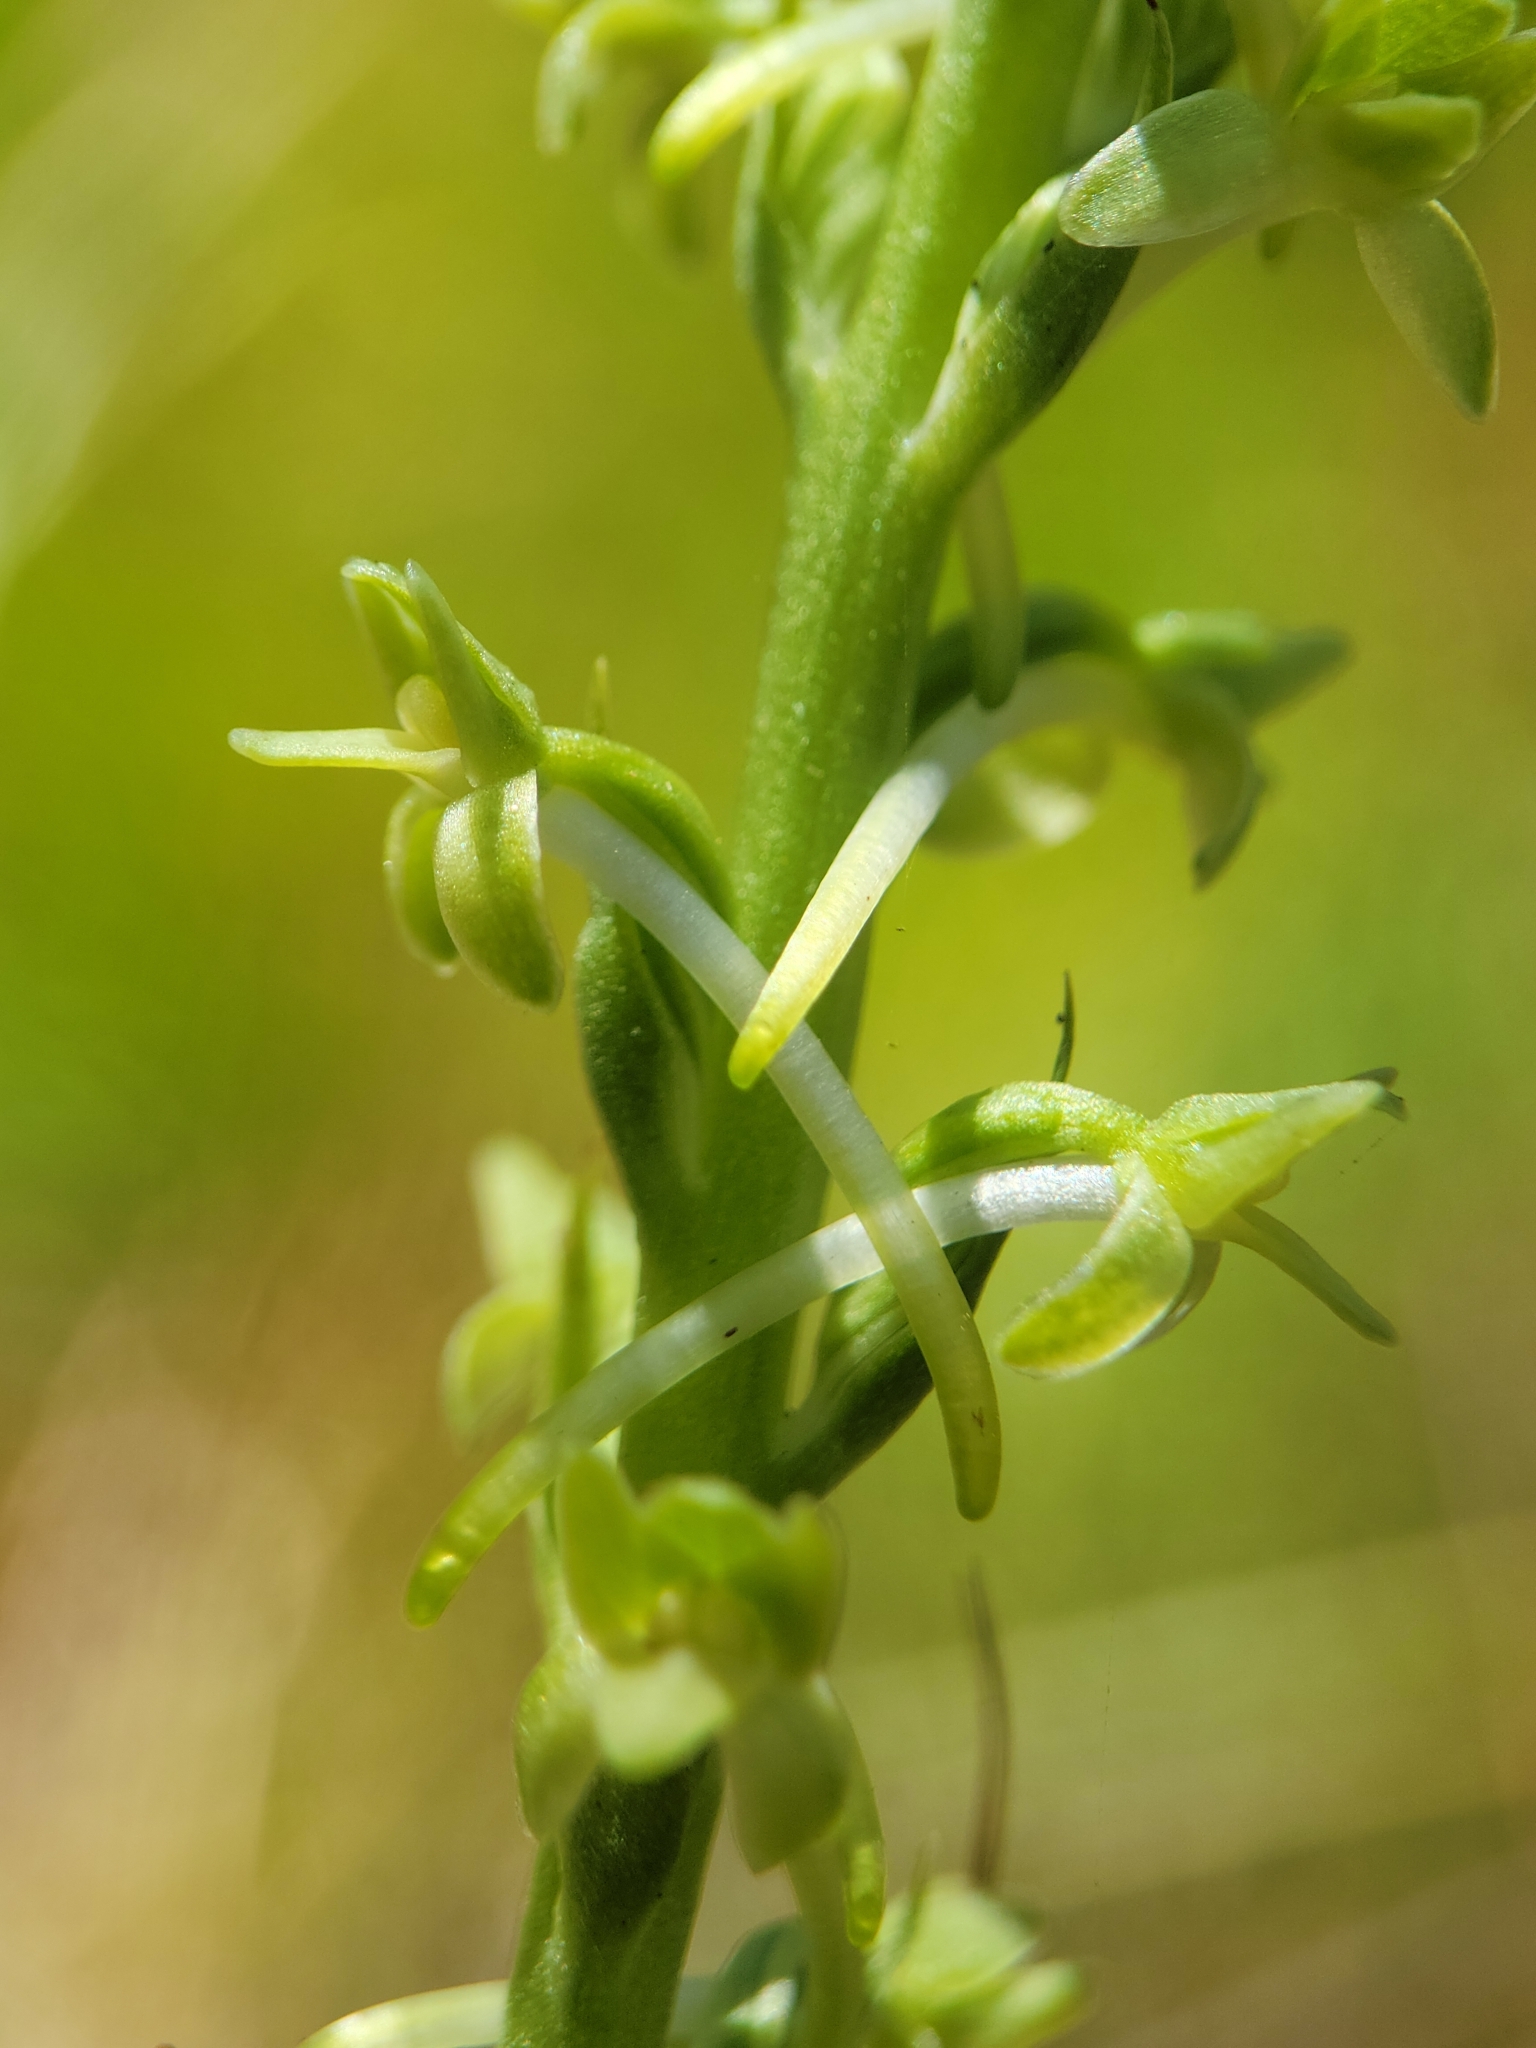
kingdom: Plantae
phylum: Tracheophyta
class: Liliopsida
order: Asparagales
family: Orchidaceae
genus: Platanthera
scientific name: Platanthera elongata
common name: Dense-flowered rein orchid
